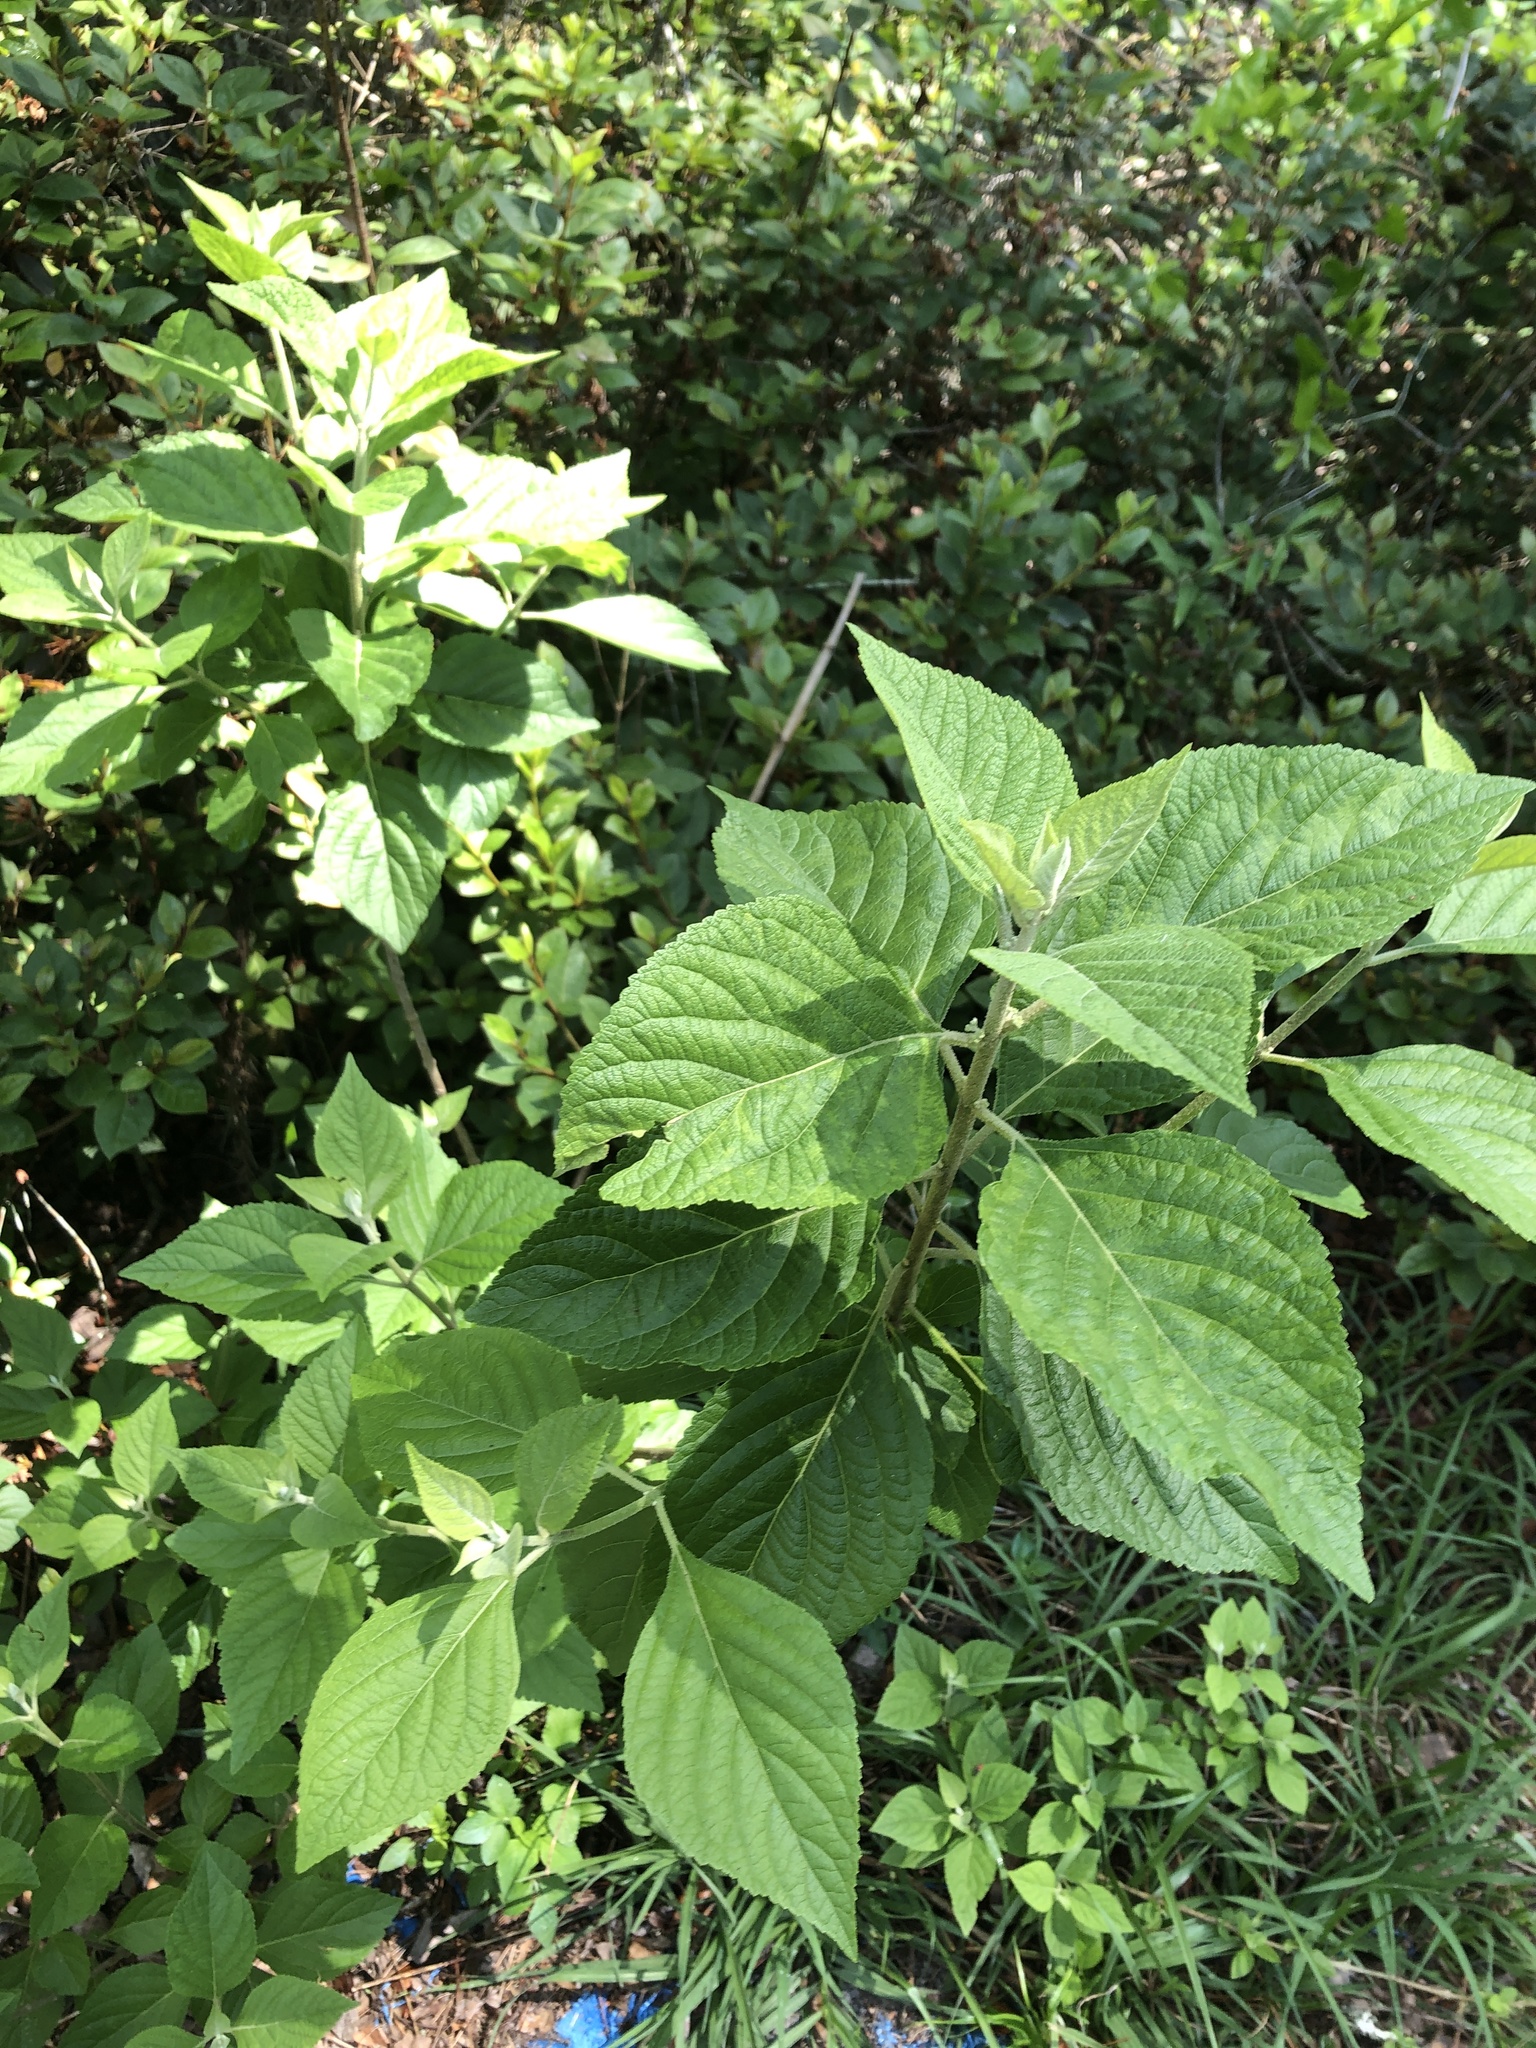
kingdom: Plantae
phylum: Tracheophyta
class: Magnoliopsida
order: Lamiales
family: Lamiaceae
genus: Callicarpa
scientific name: Callicarpa americana
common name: American beautyberry
